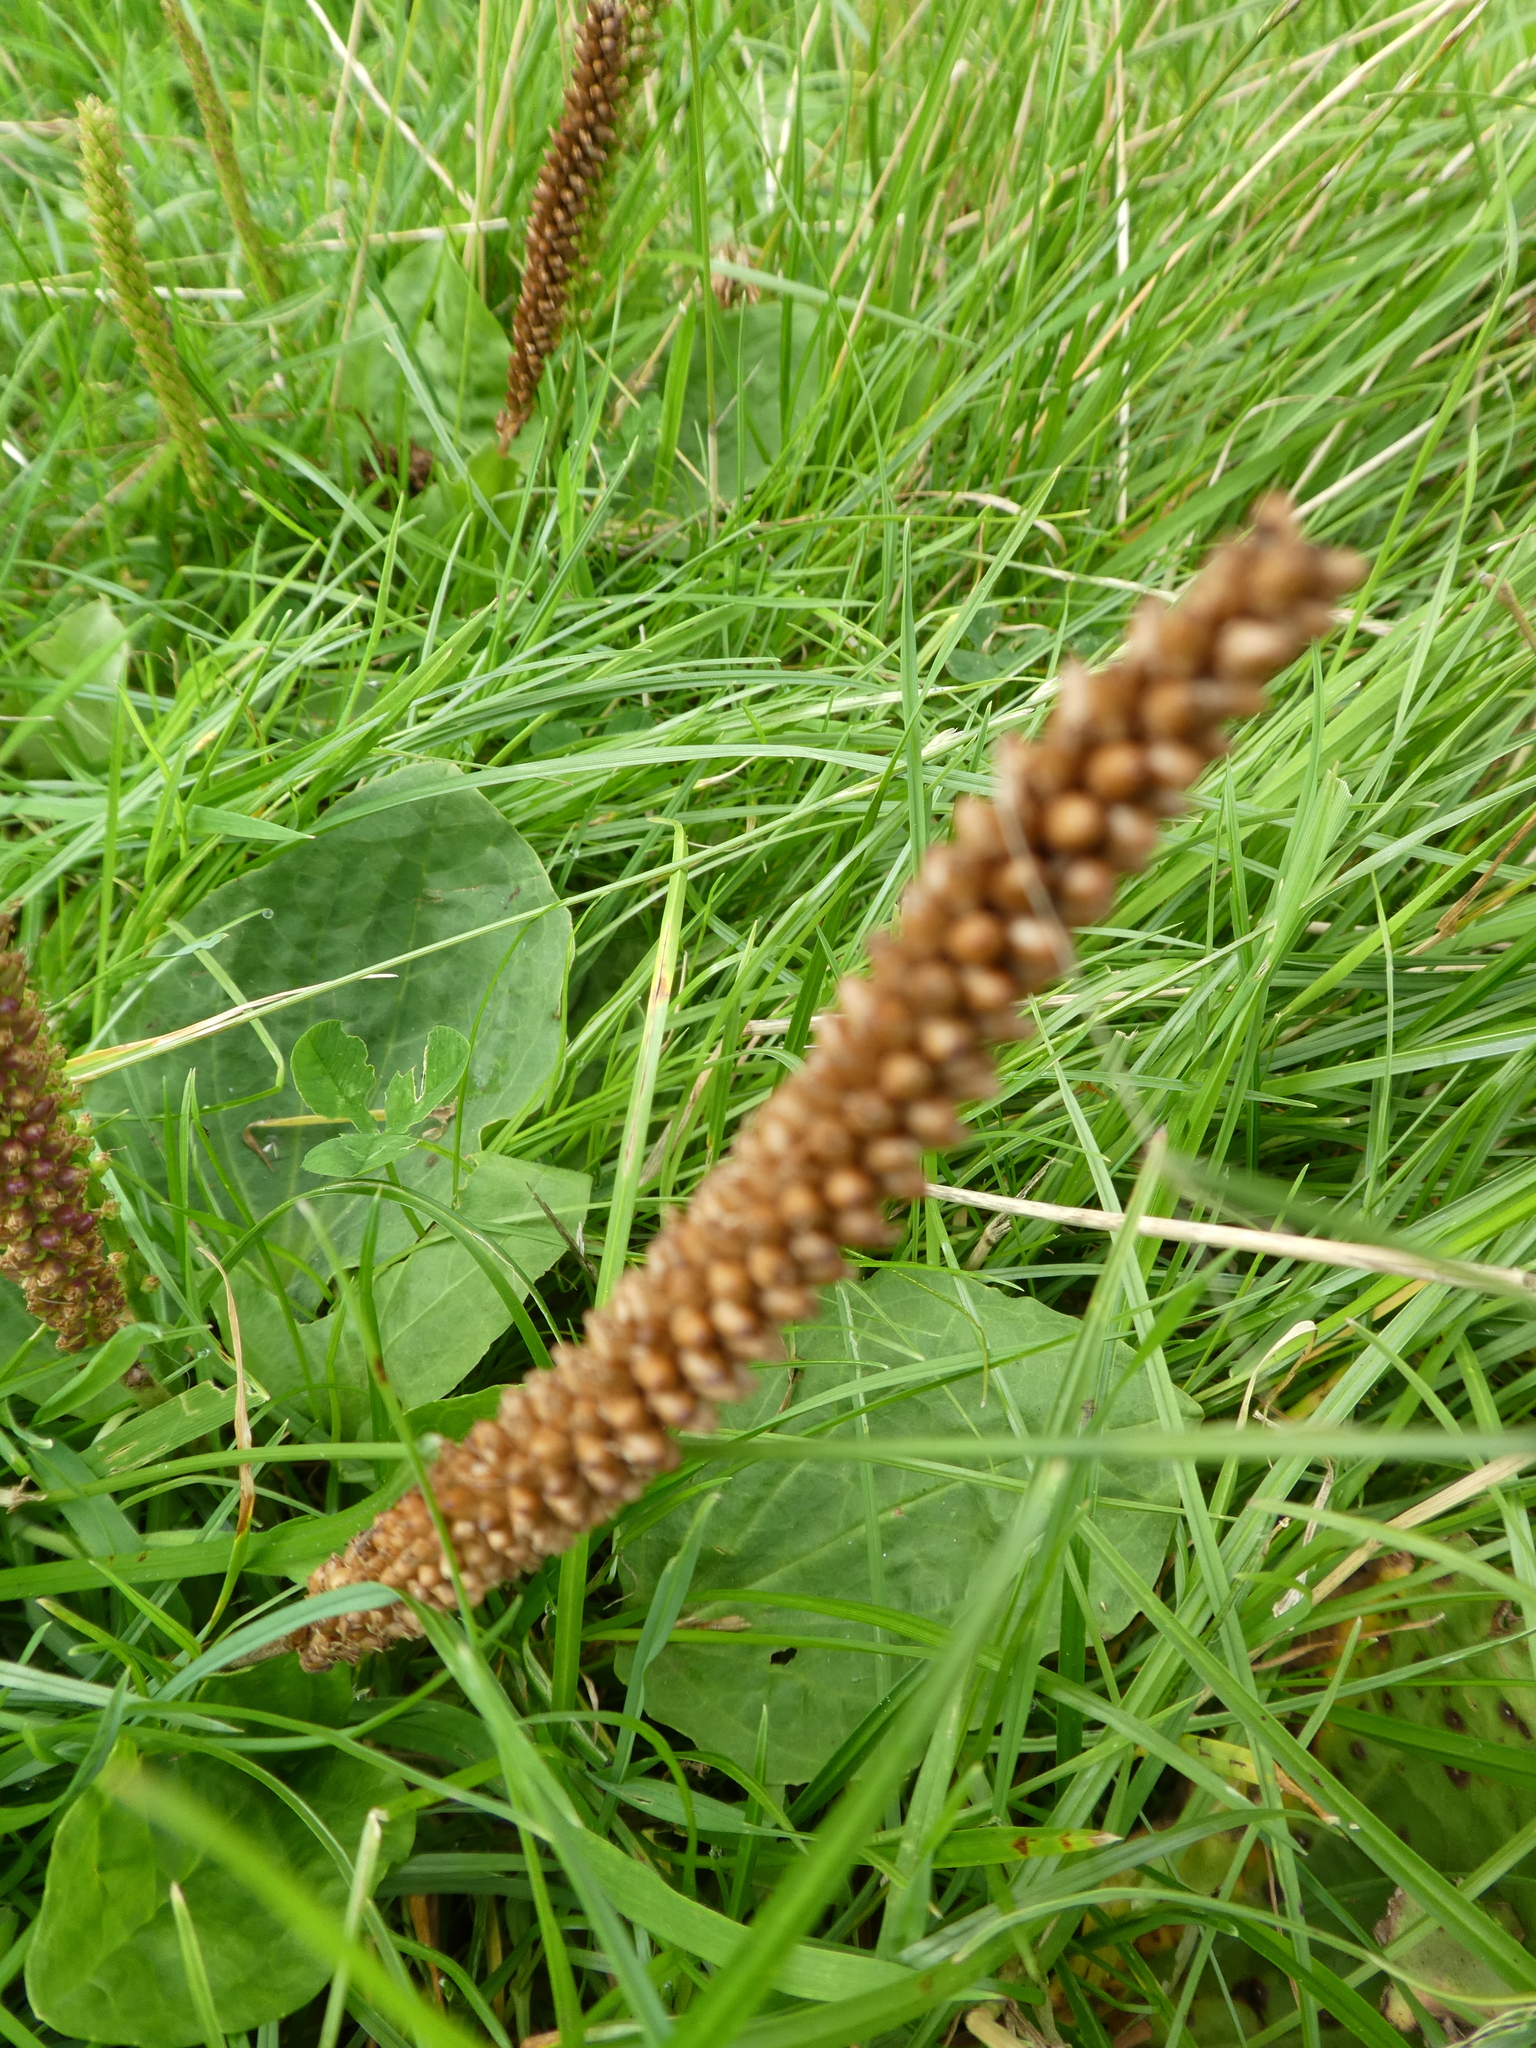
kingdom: Plantae
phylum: Tracheophyta
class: Magnoliopsida
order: Lamiales
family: Plantaginaceae
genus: Plantago
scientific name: Plantago major
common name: Common plantain
